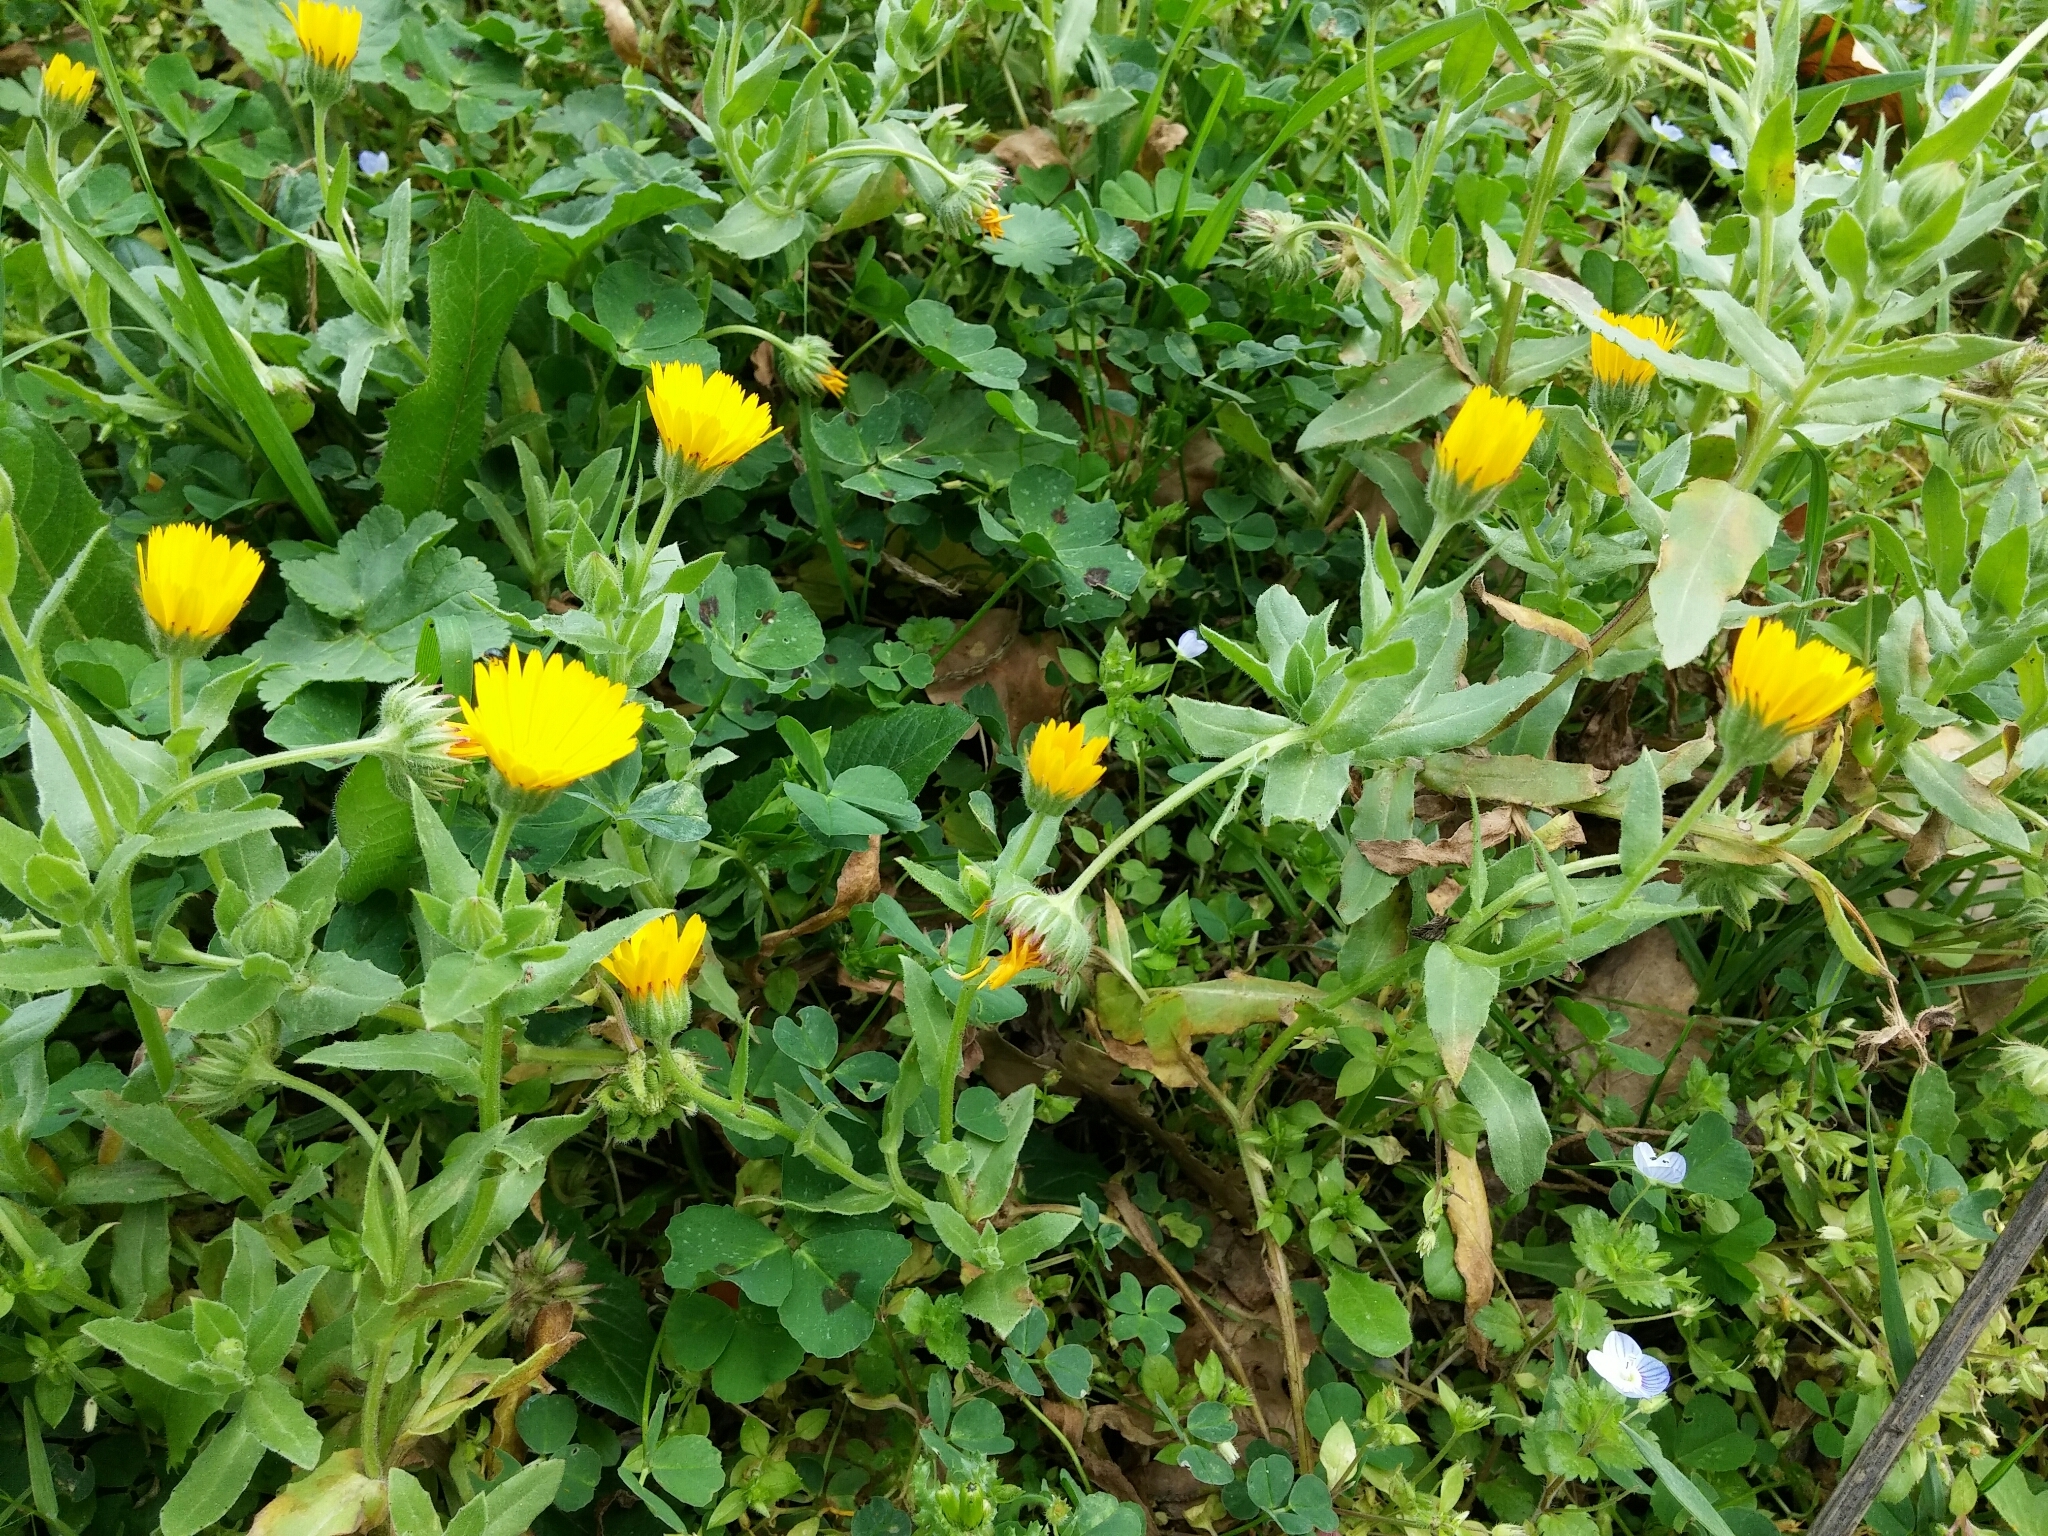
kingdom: Plantae
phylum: Tracheophyta
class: Magnoliopsida
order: Asterales
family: Asteraceae
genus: Calendula
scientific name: Calendula arvensis
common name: Field marigold
